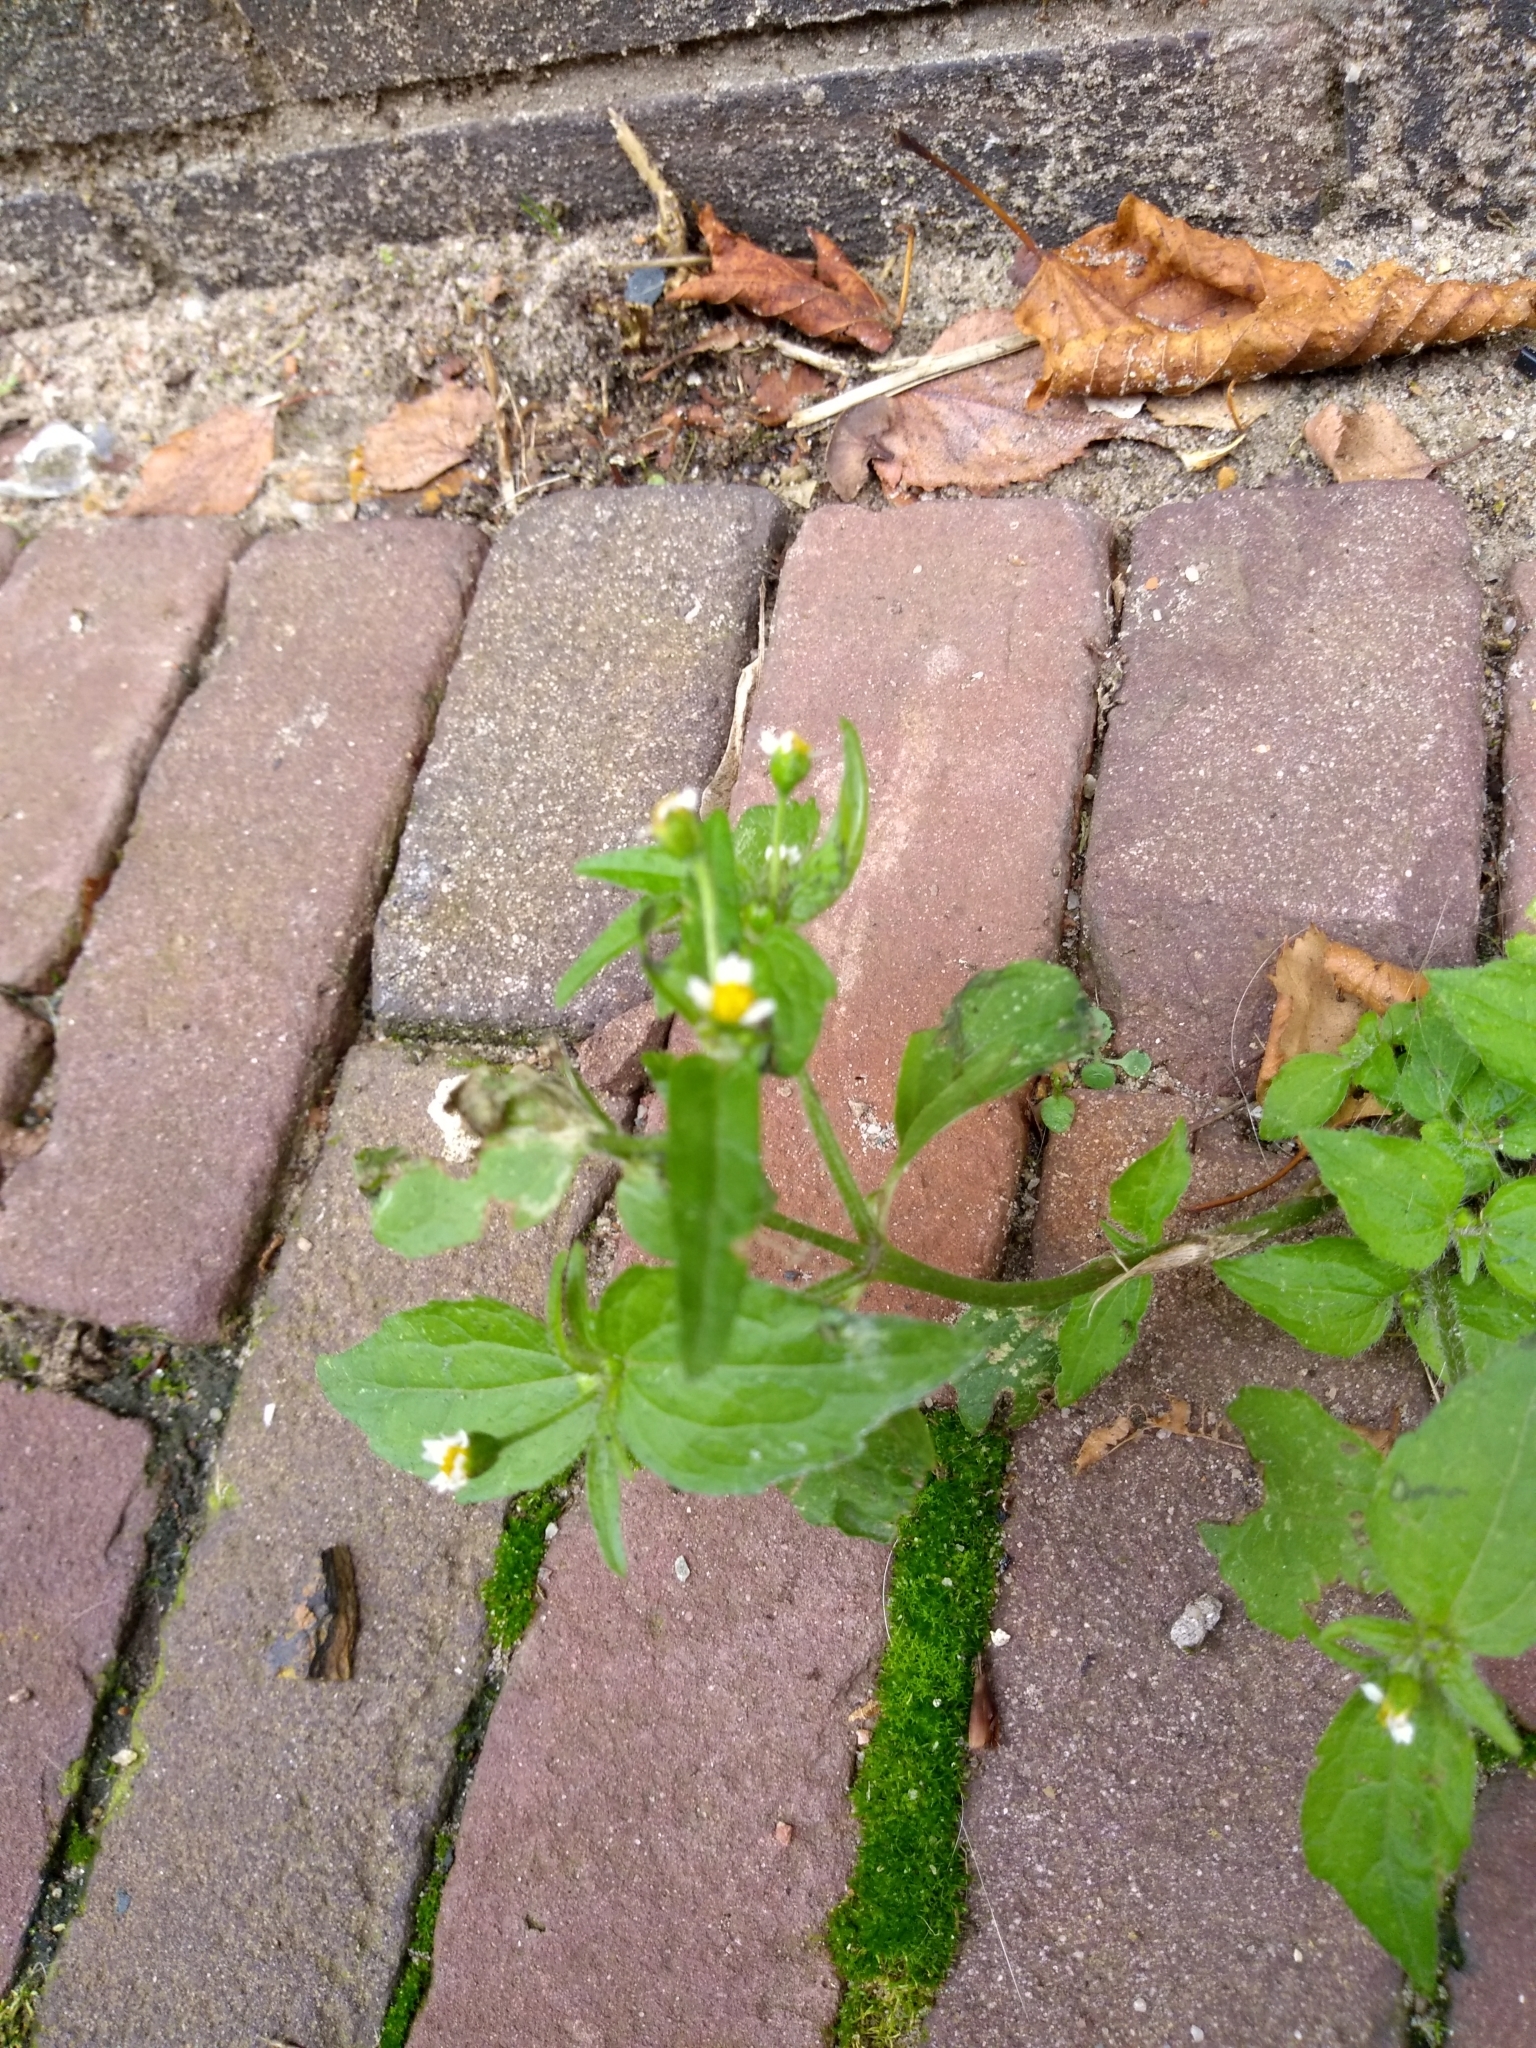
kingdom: Plantae
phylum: Tracheophyta
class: Magnoliopsida
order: Asterales
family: Asteraceae
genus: Galinsoga
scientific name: Galinsoga quadriradiata
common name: Shaggy soldier
